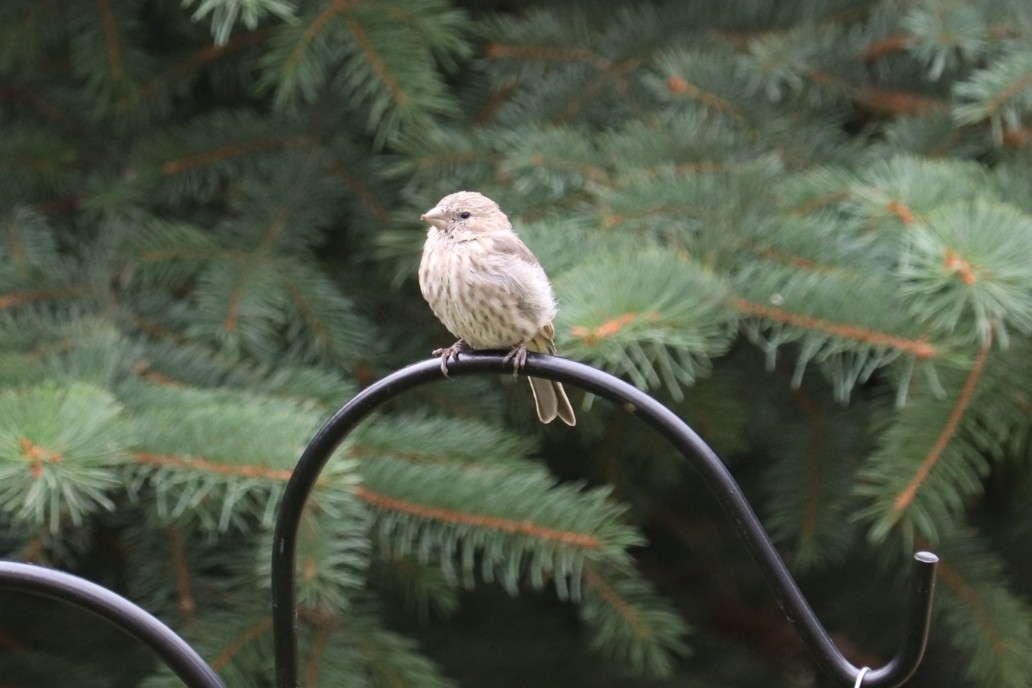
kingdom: Animalia
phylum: Chordata
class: Aves
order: Passeriformes
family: Fringillidae
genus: Haemorhous
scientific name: Haemorhous mexicanus
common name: House finch
